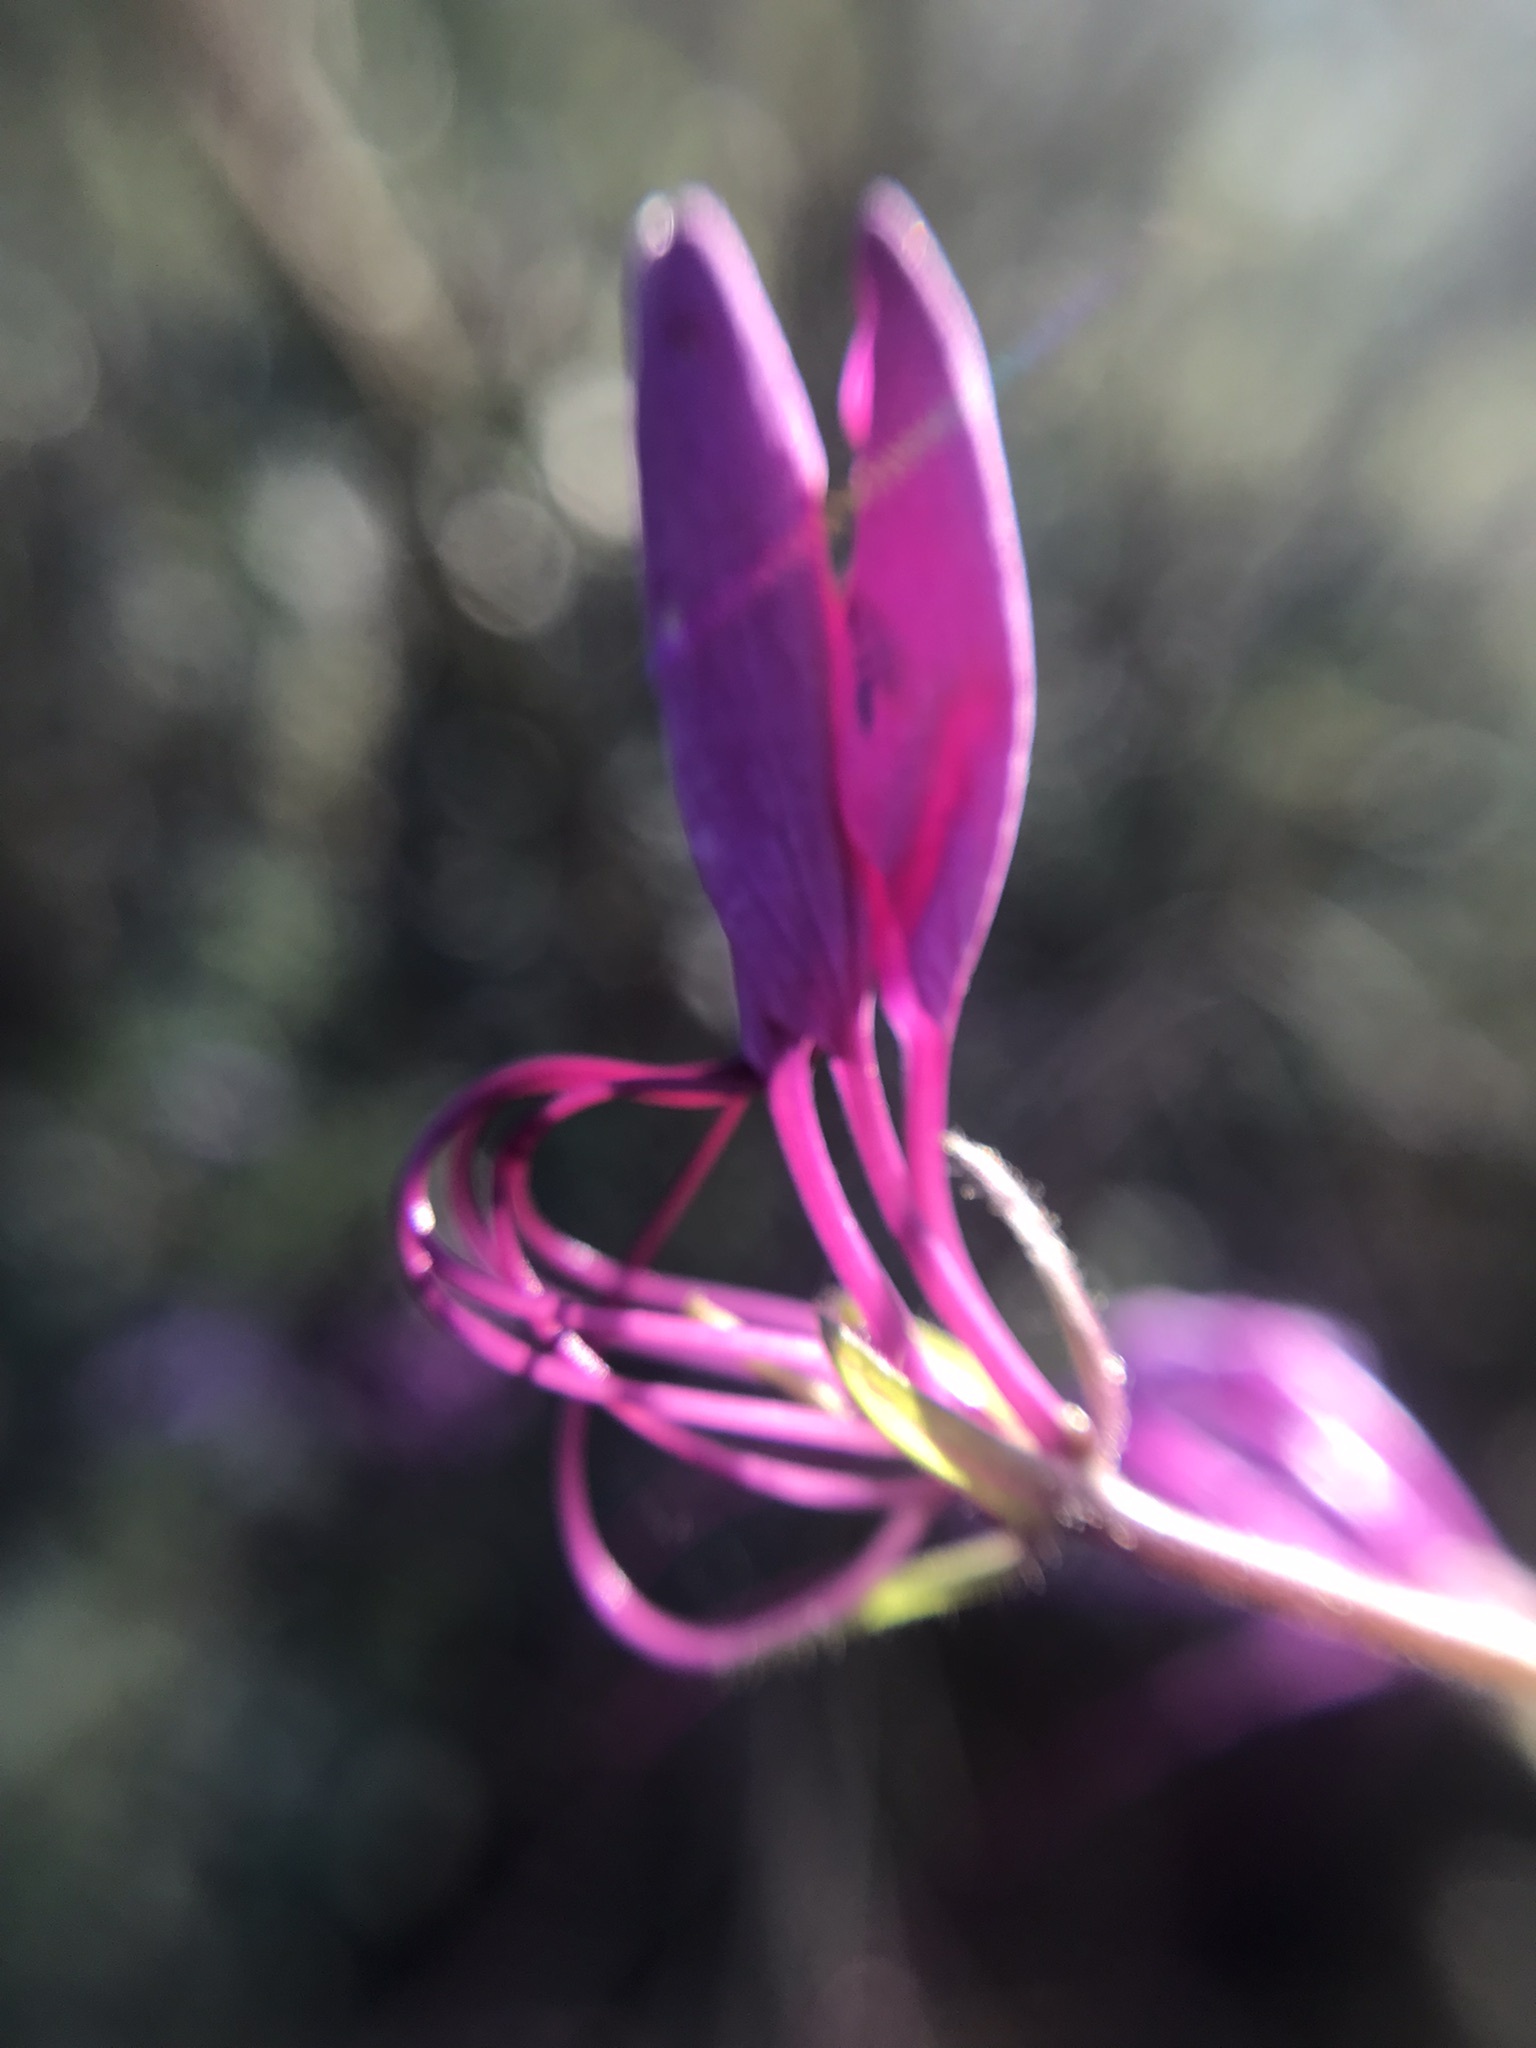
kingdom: Plantae
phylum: Tracheophyta
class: Magnoliopsida
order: Brassicales
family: Cleomaceae
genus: Tarenaya
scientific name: Tarenaya houtteana
